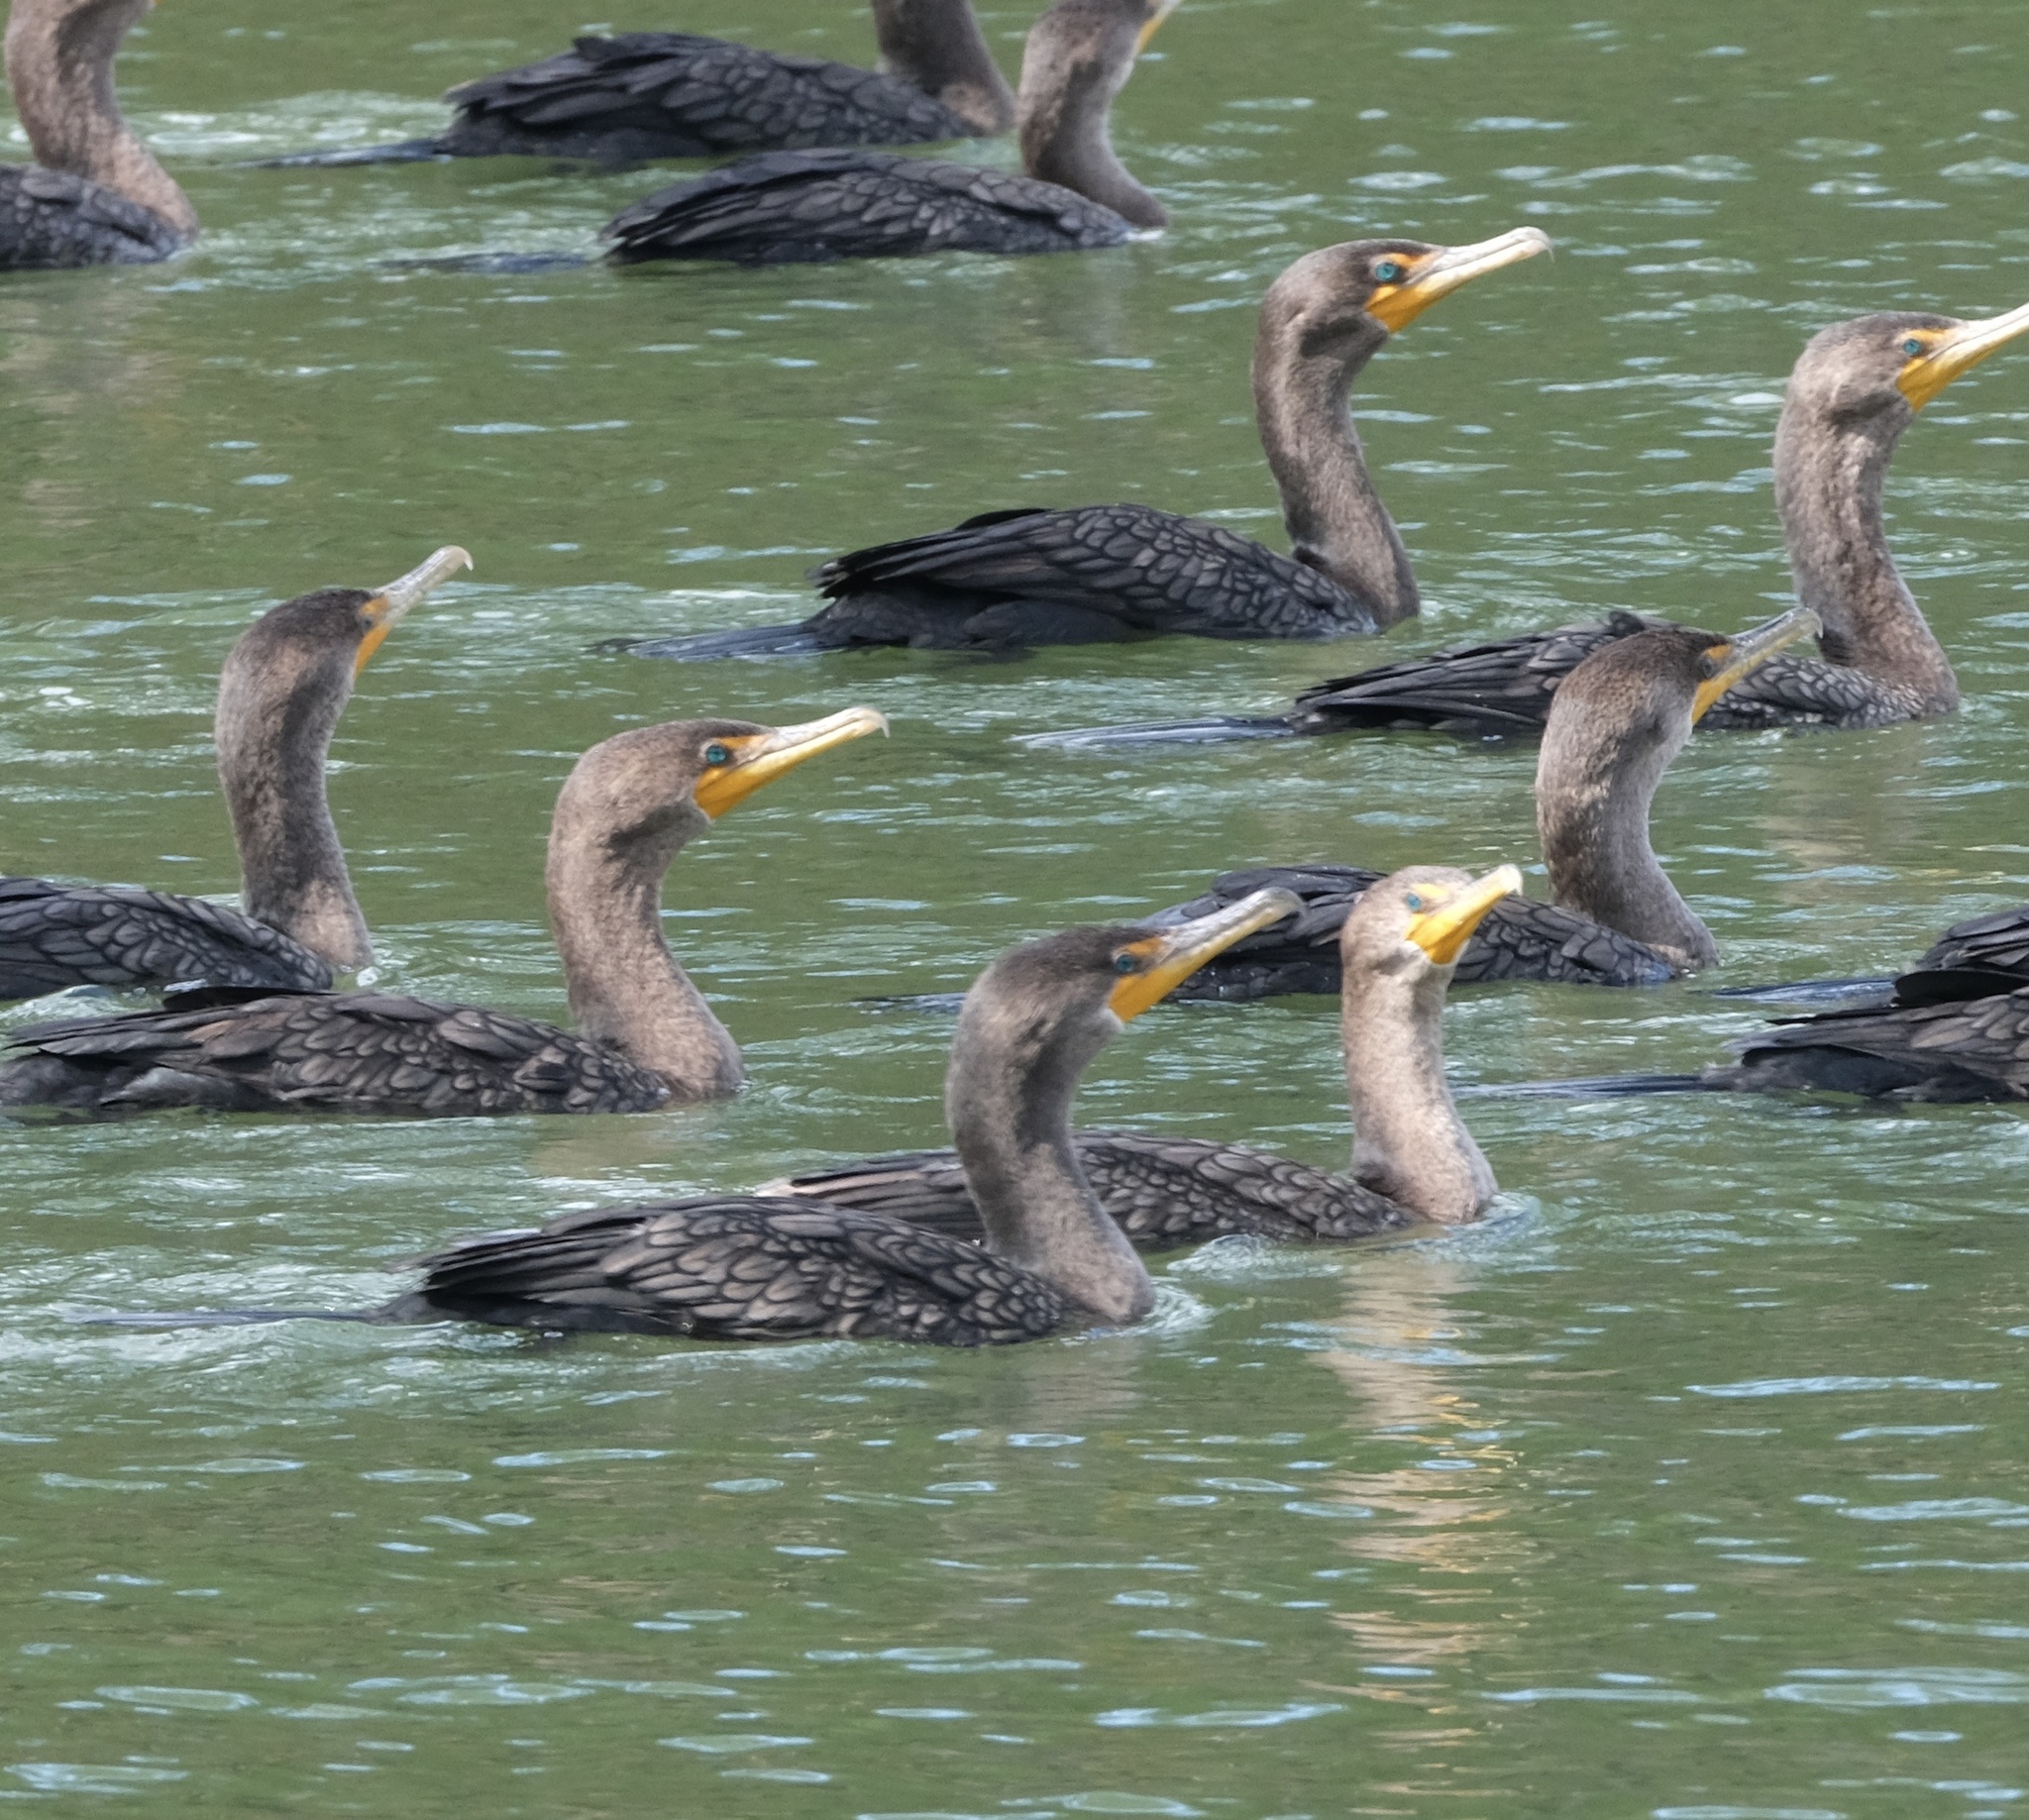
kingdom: Animalia
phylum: Chordata
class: Aves
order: Suliformes
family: Phalacrocoracidae
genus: Phalacrocorax
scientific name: Phalacrocorax brasilianus
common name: Neotropic cormorant
